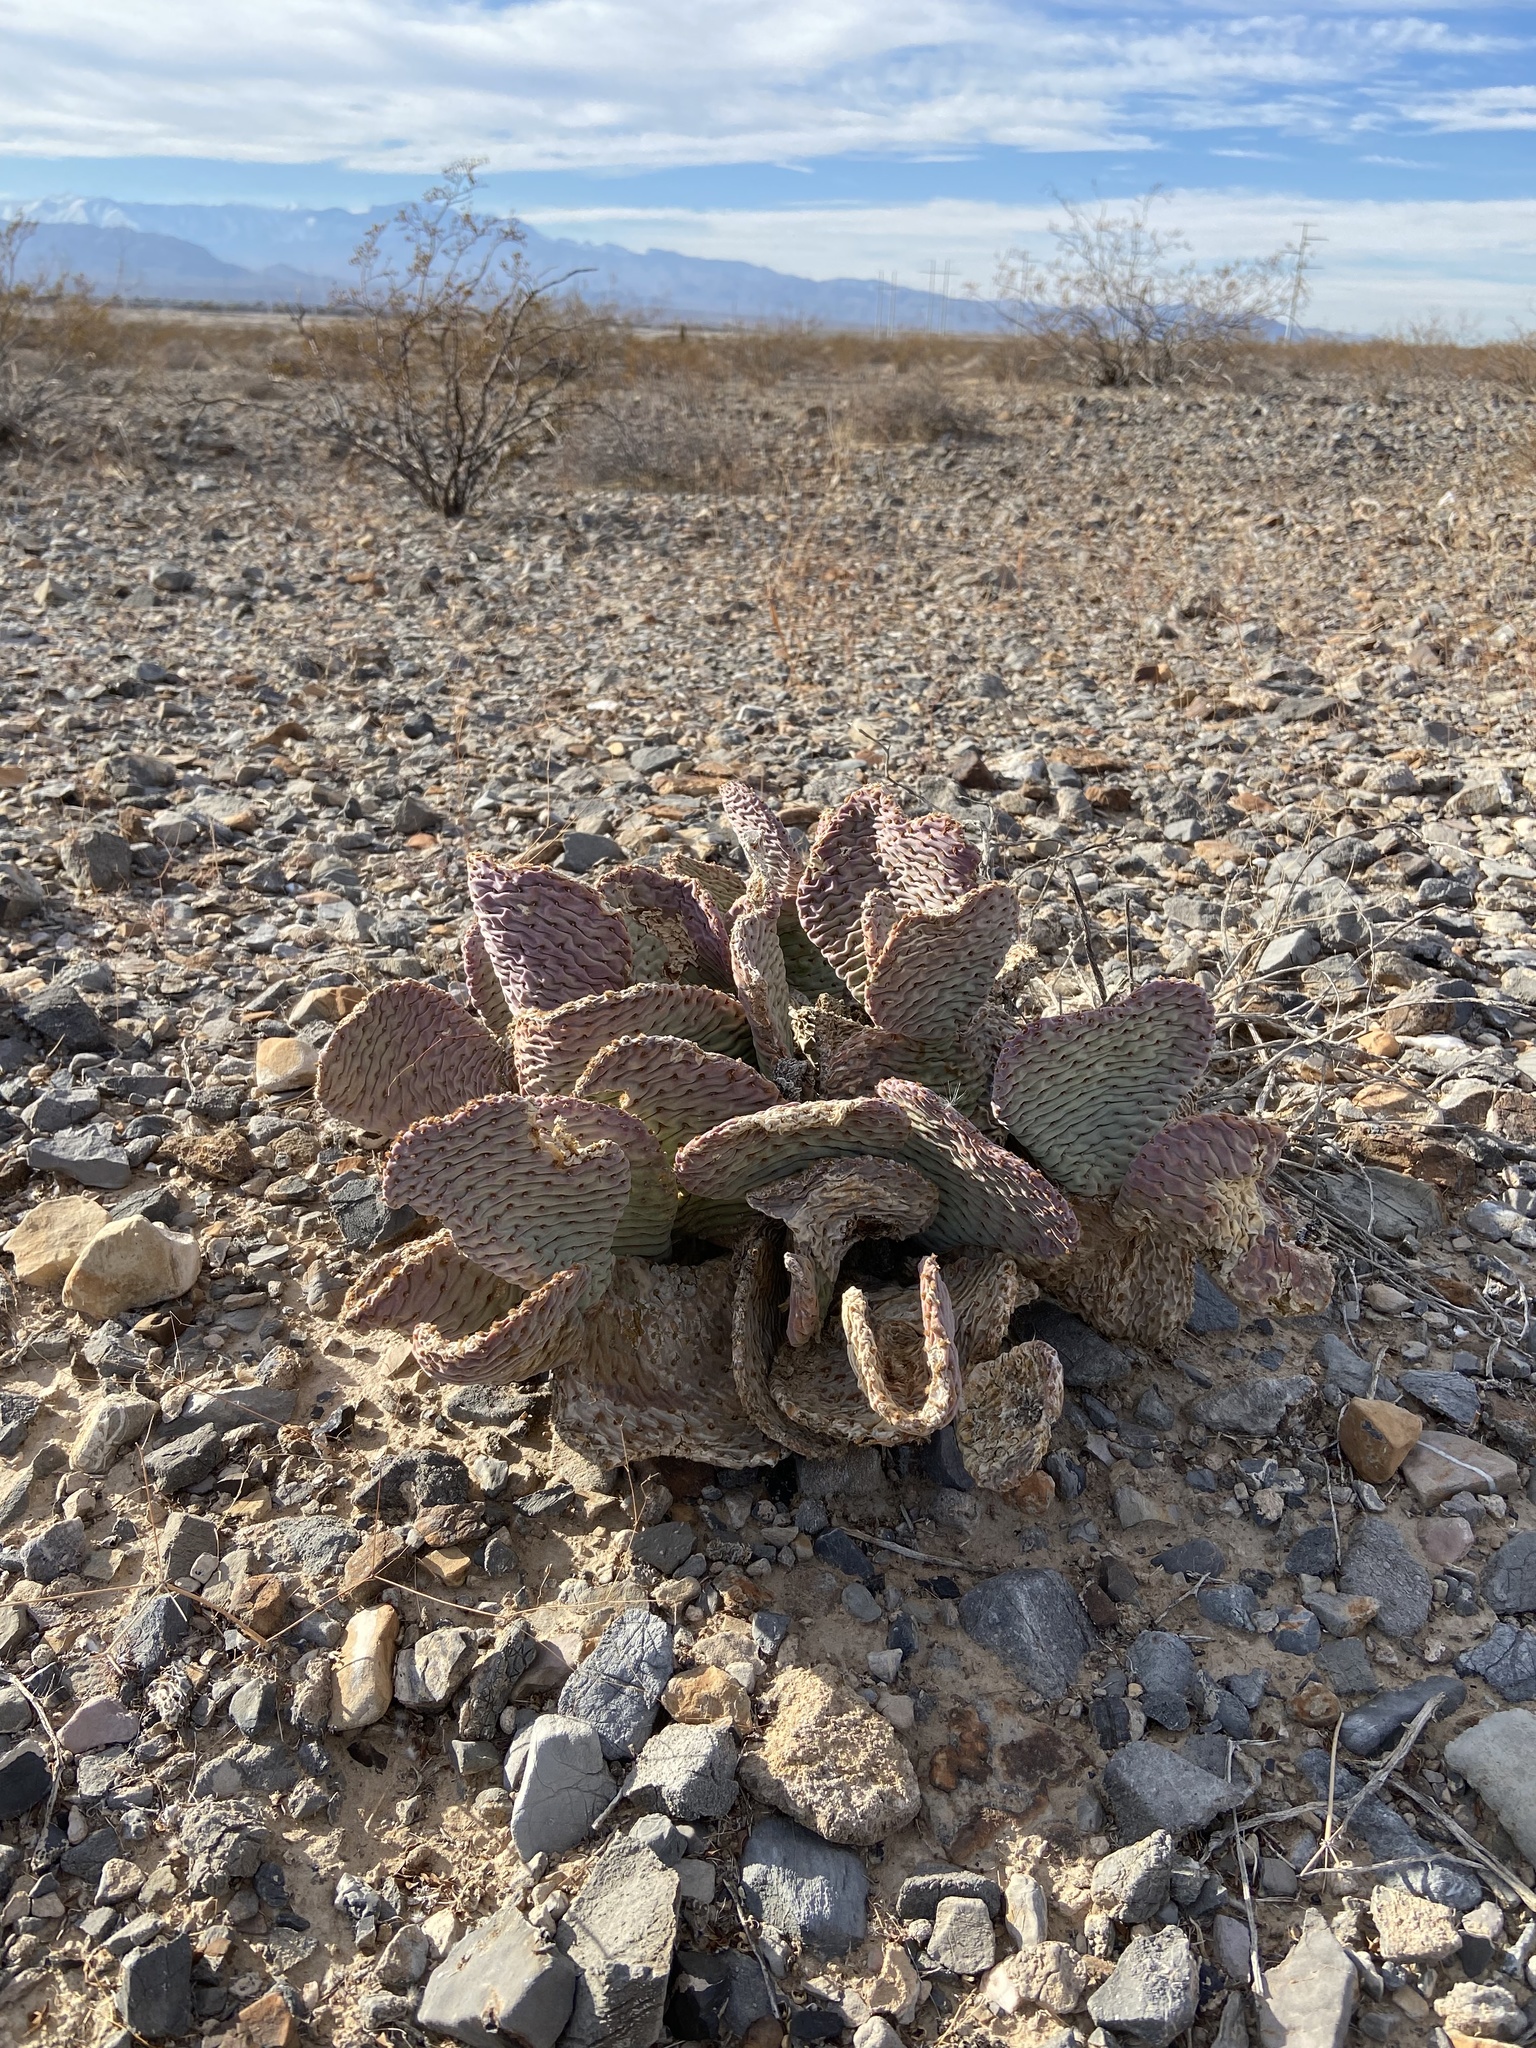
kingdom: Plantae
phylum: Tracheophyta
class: Magnoliopsida
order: Caryophyllales
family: Cactaceae
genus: Opuntia
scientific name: Opuntia basilaris
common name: Beavertail prickly-pear
